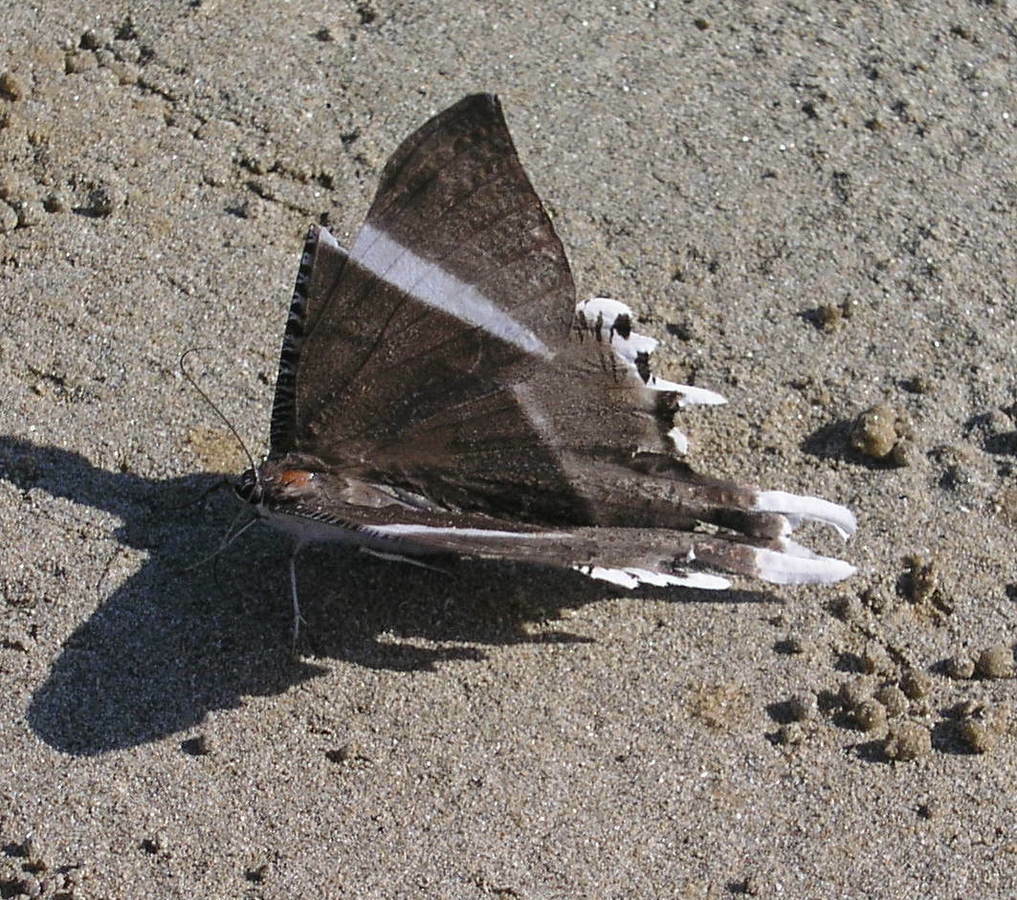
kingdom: Animalia
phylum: Arthropoda
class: Insecta
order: Lepidoptera
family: Uraniidae
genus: Lyssa
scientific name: Lyssa macleayi
